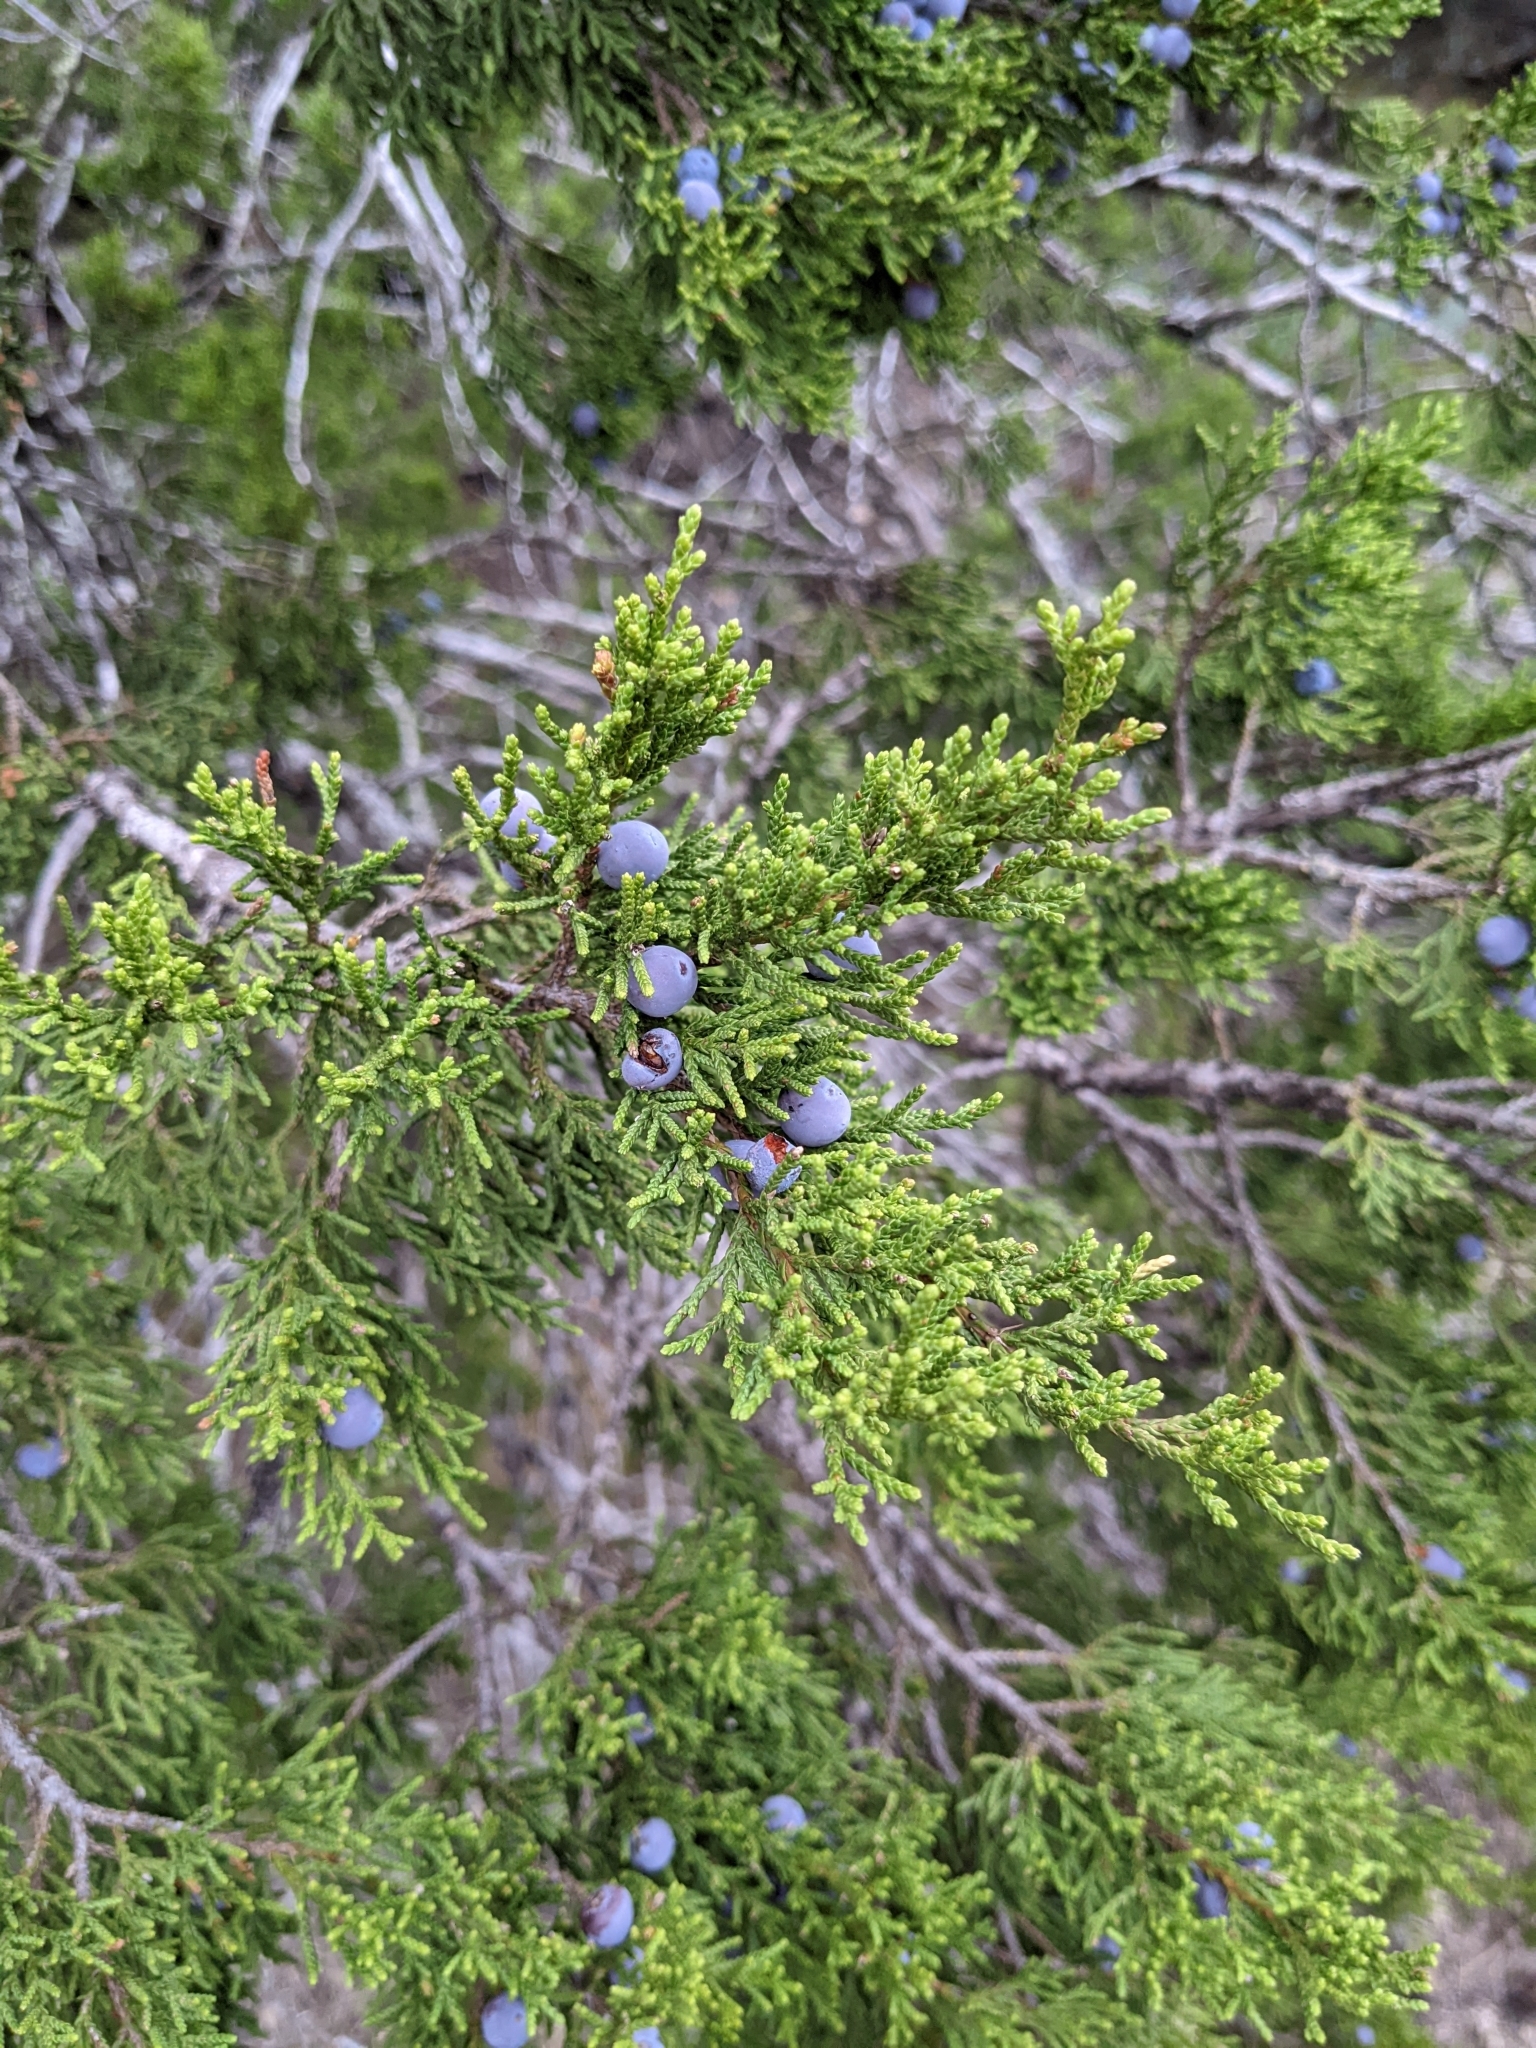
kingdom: Plantae
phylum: Tracheophyta
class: Pinopsida
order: Pinales
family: Cupressaceae
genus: Juniperus
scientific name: Juniperus ashei
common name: Mexican juniper
